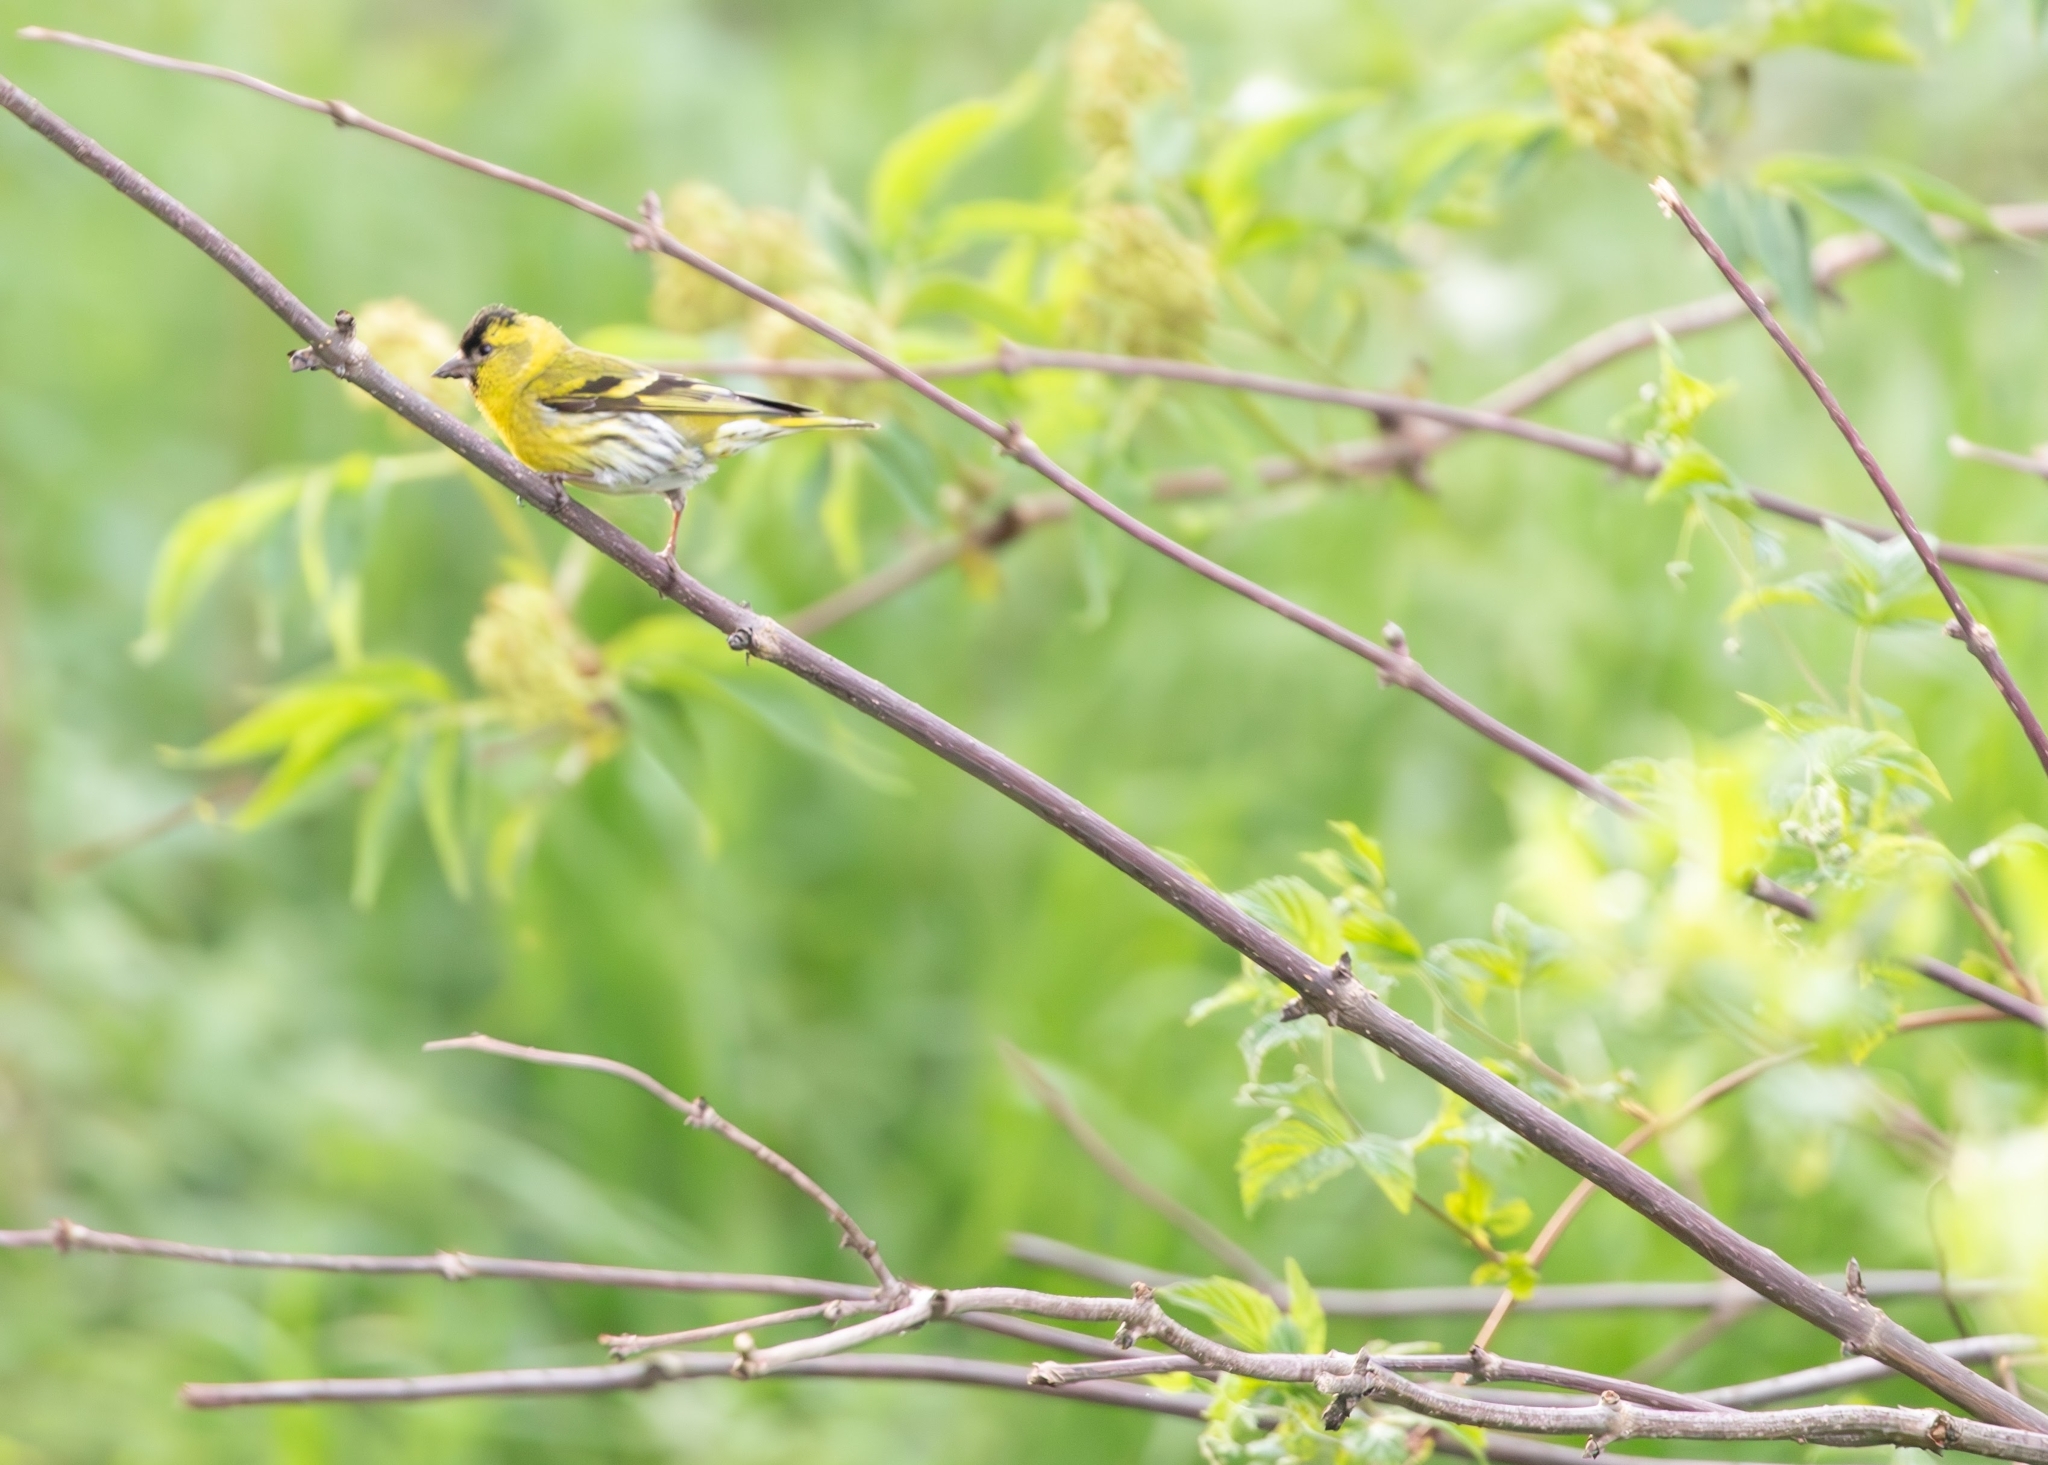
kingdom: Animalia
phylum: Chordata
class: Aves
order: Passeriformes
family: Fringillidae
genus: Spinus
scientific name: Spinus spinus
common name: Eurasian siskin
